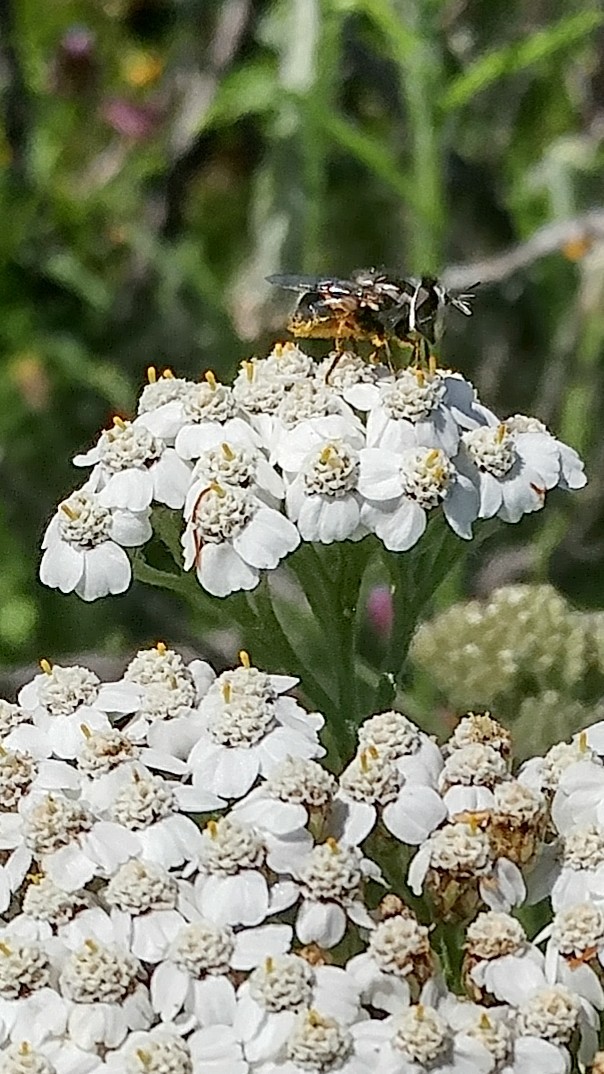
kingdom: Animalia
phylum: Arthropoda
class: Insecta
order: Diptera
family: Syrphidae
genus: Copestylum
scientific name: Copestylum lentum
